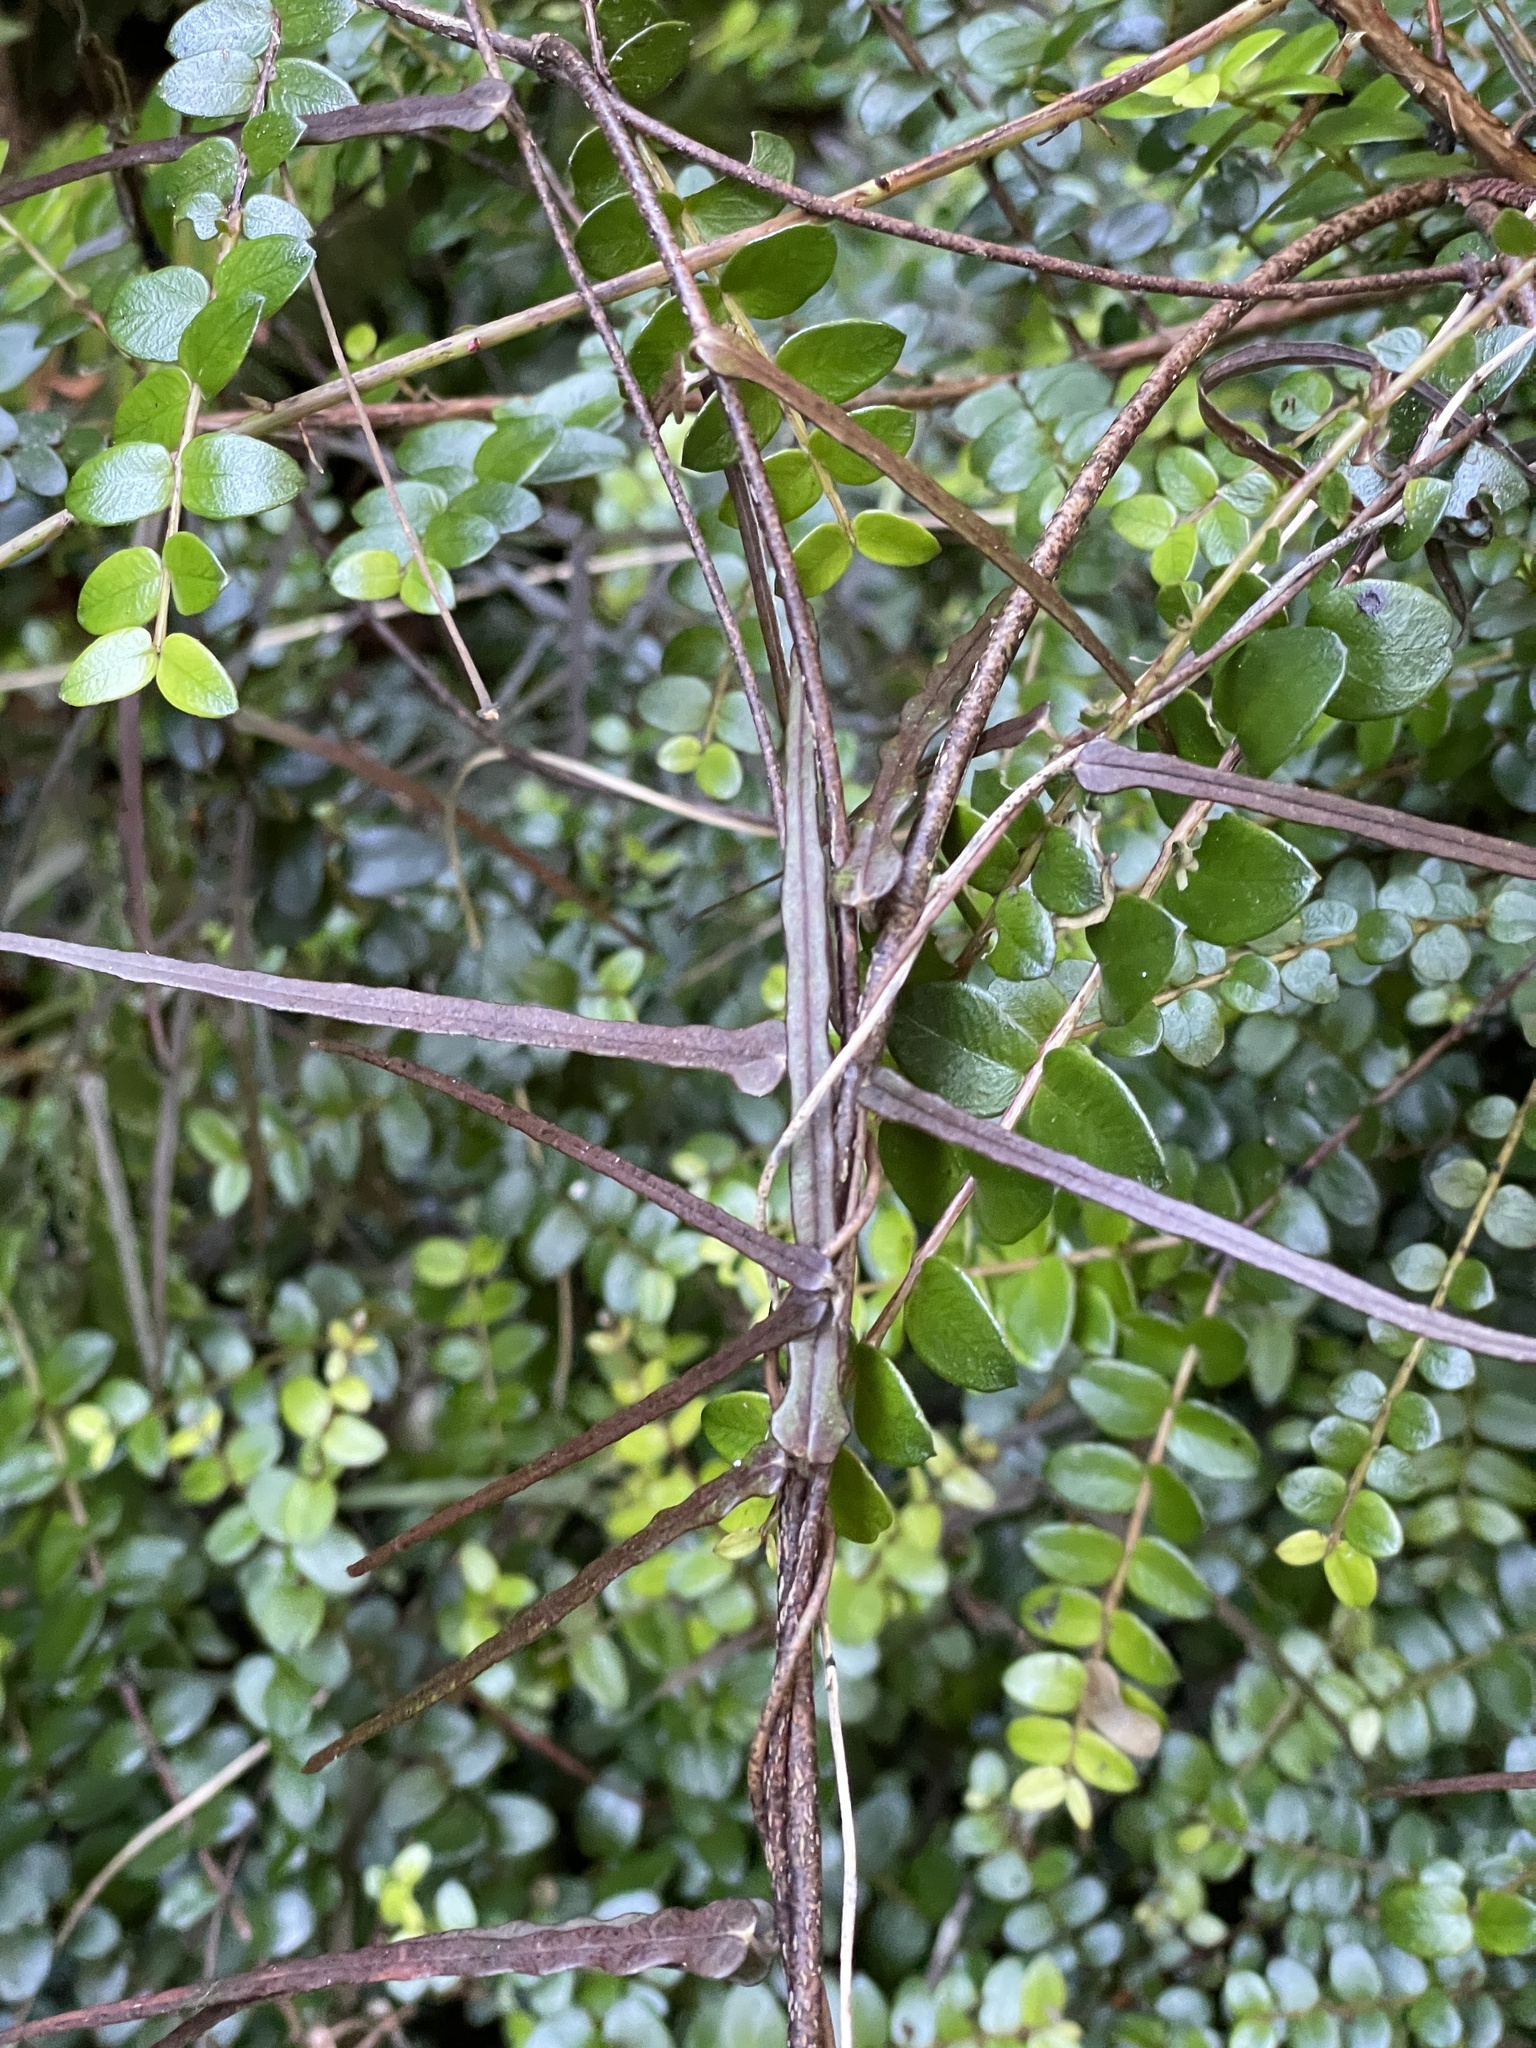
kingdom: Plantae
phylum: Tracheophyta
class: Magnoliopsida
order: Gentianales
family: Apocynaceae
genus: Parsonsia
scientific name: Parsonsia heterophylla
